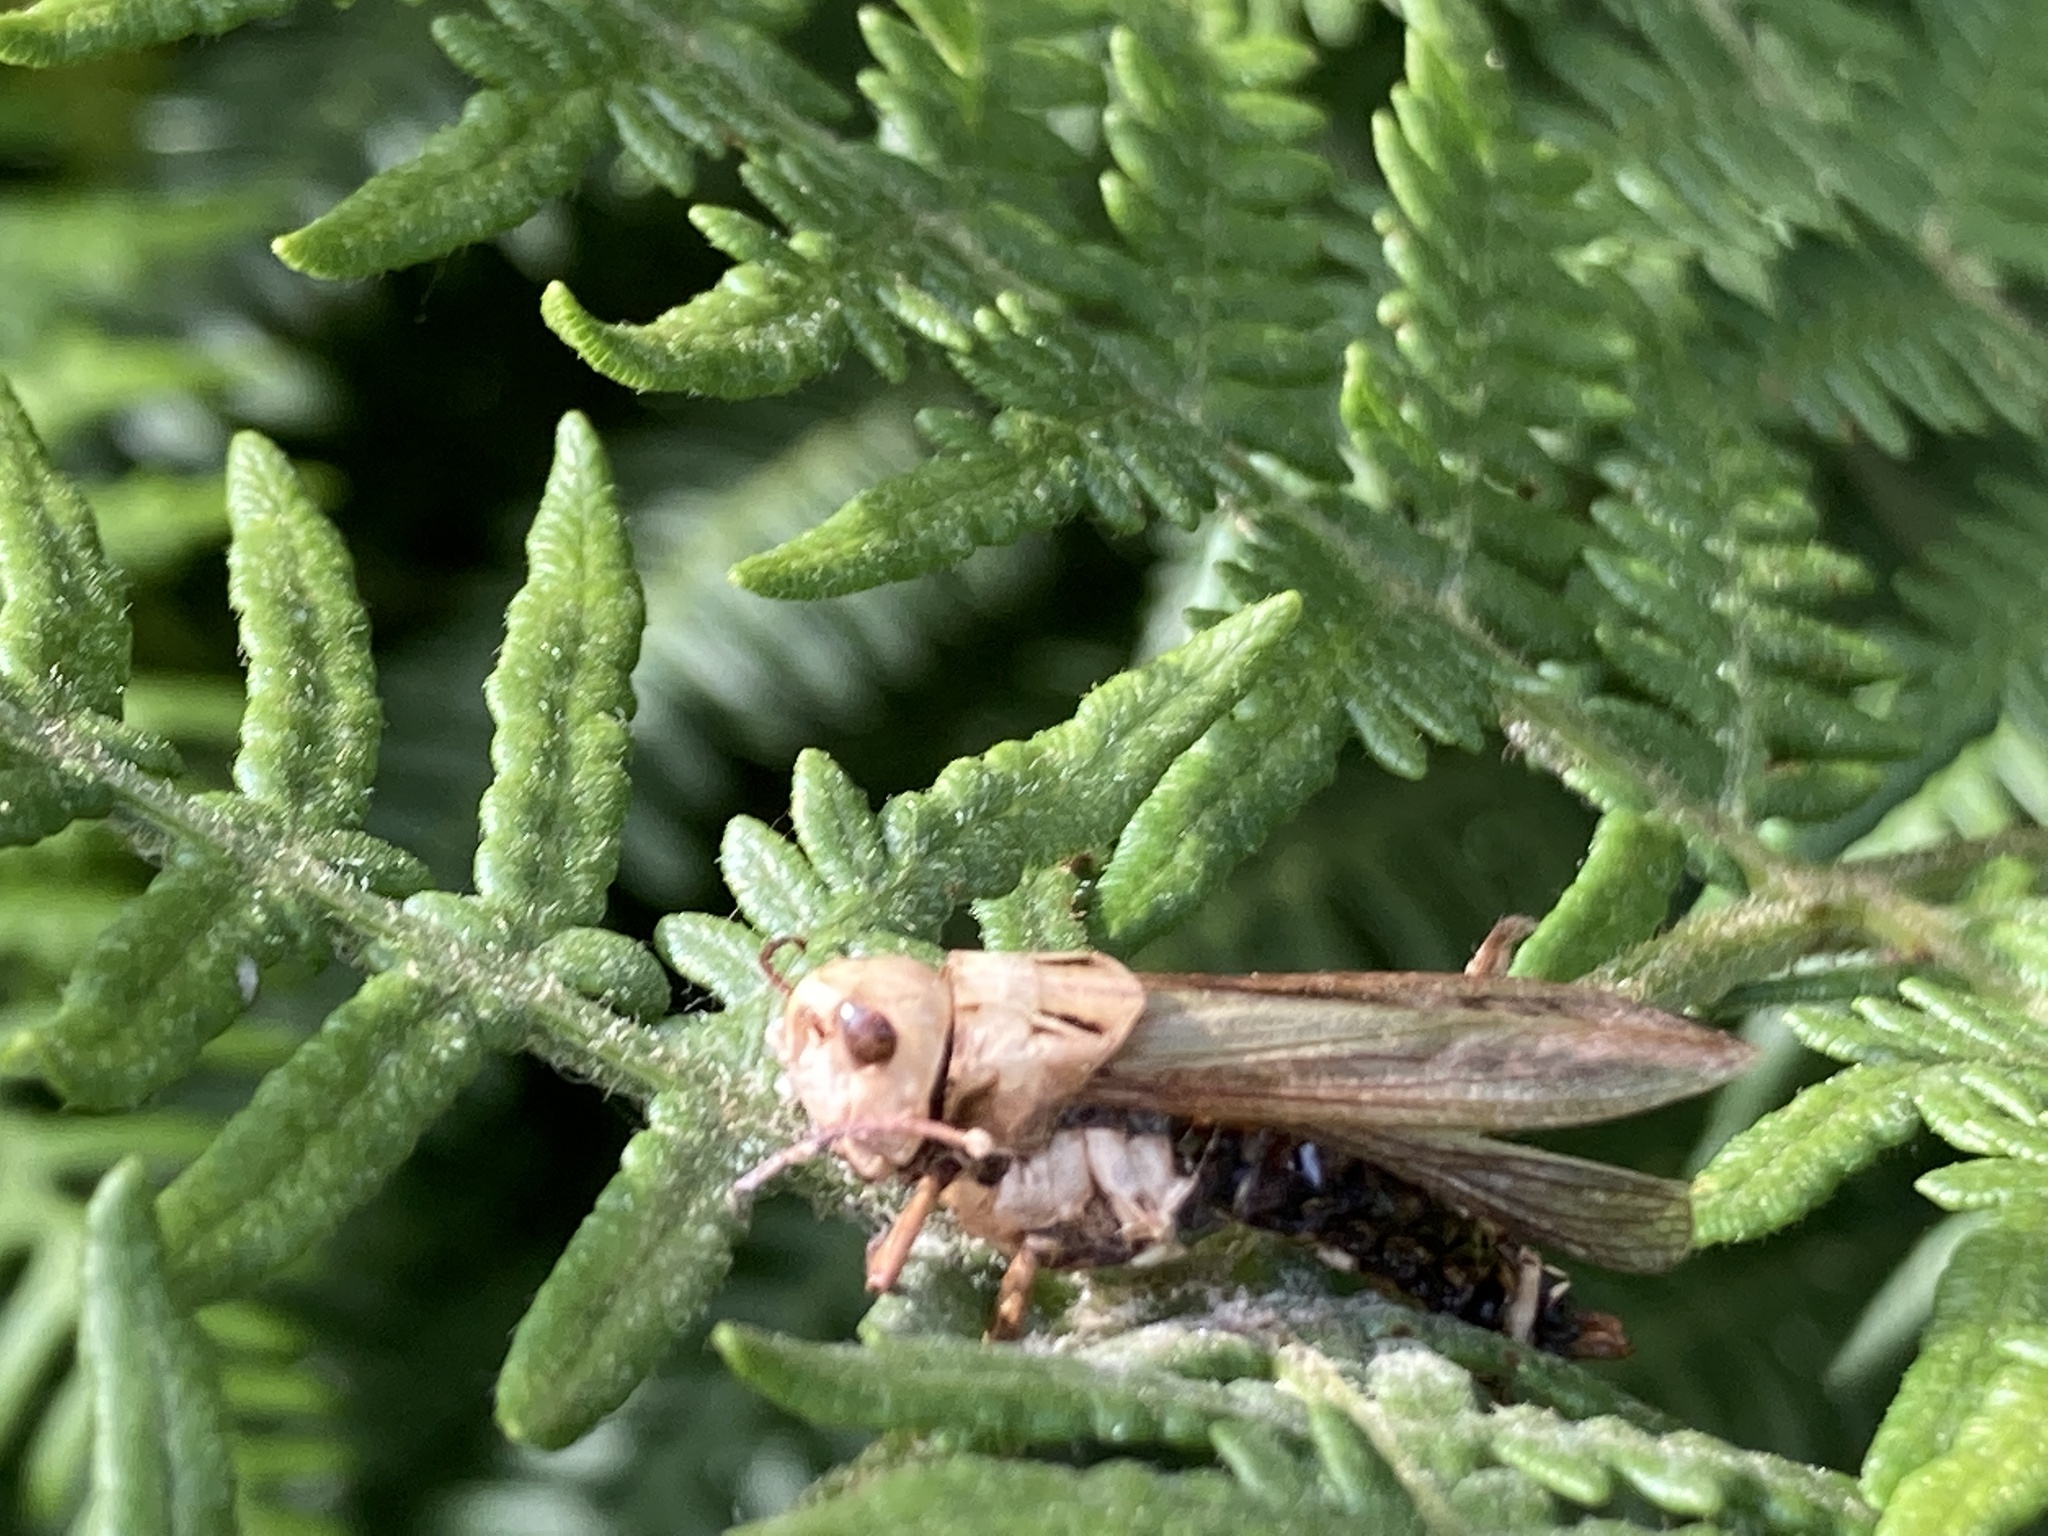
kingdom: Animalia
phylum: Arthropoda
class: Insecta
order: Orthoptera
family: Acrididae
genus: Omocestus
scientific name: Omocestus viridulus
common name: Common green grasshopper
